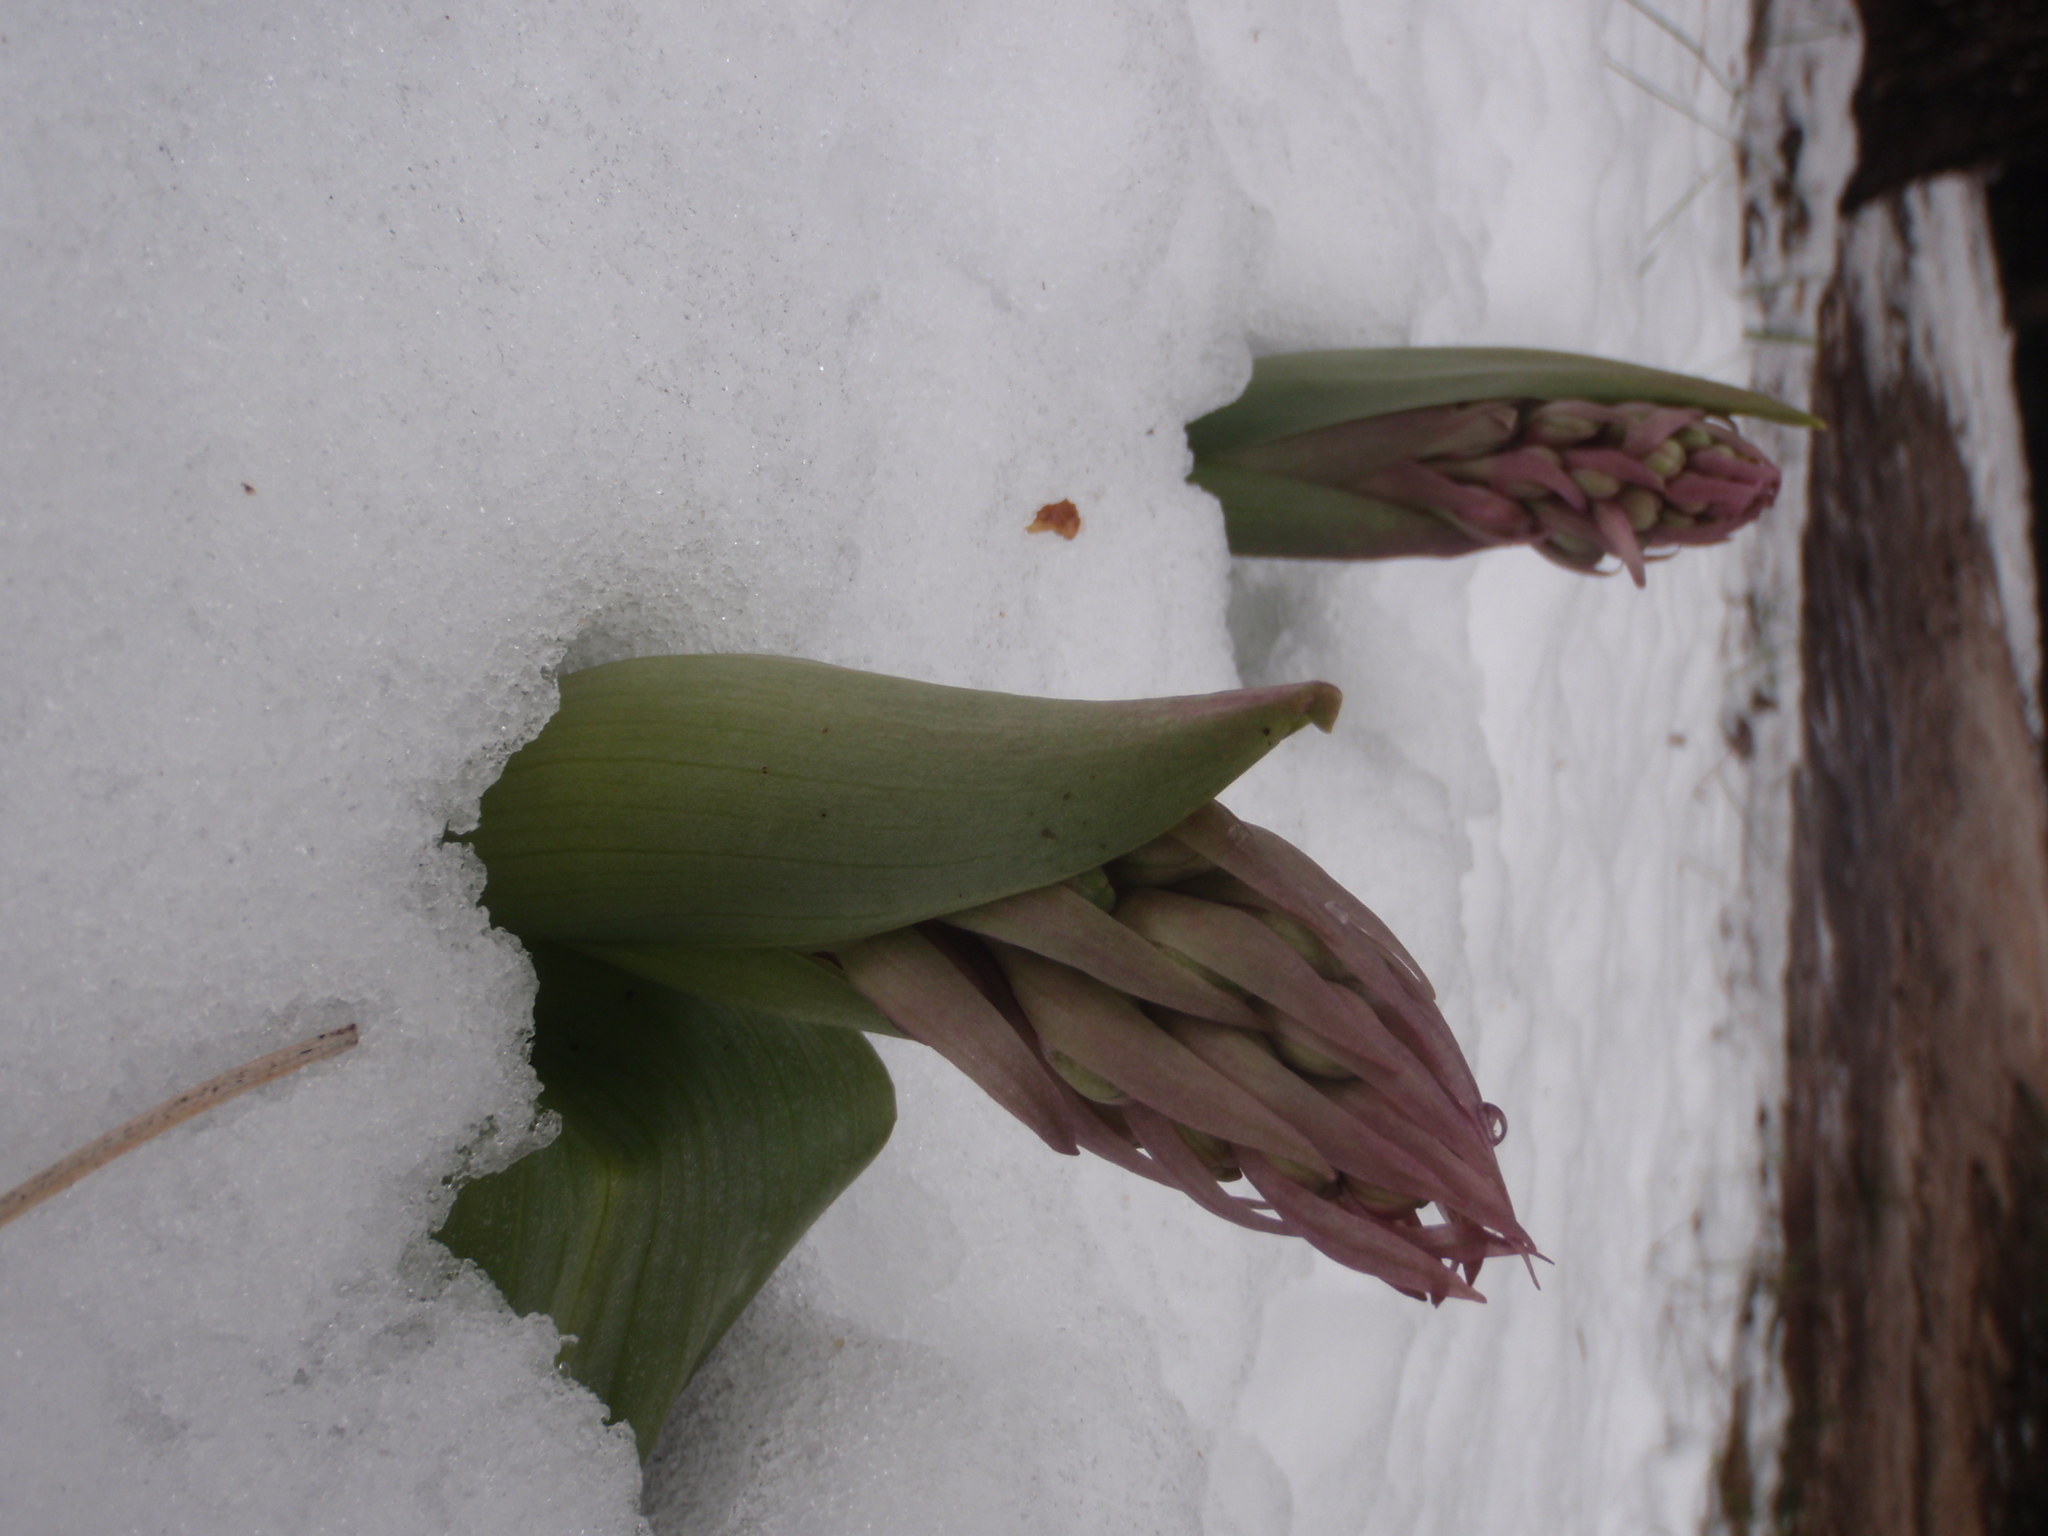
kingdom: Plantae
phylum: Tracheophyta
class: Liliopsida
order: Asparagales
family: Orchidaceae
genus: Himantoglossum
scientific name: Himantoglossum robertianum
